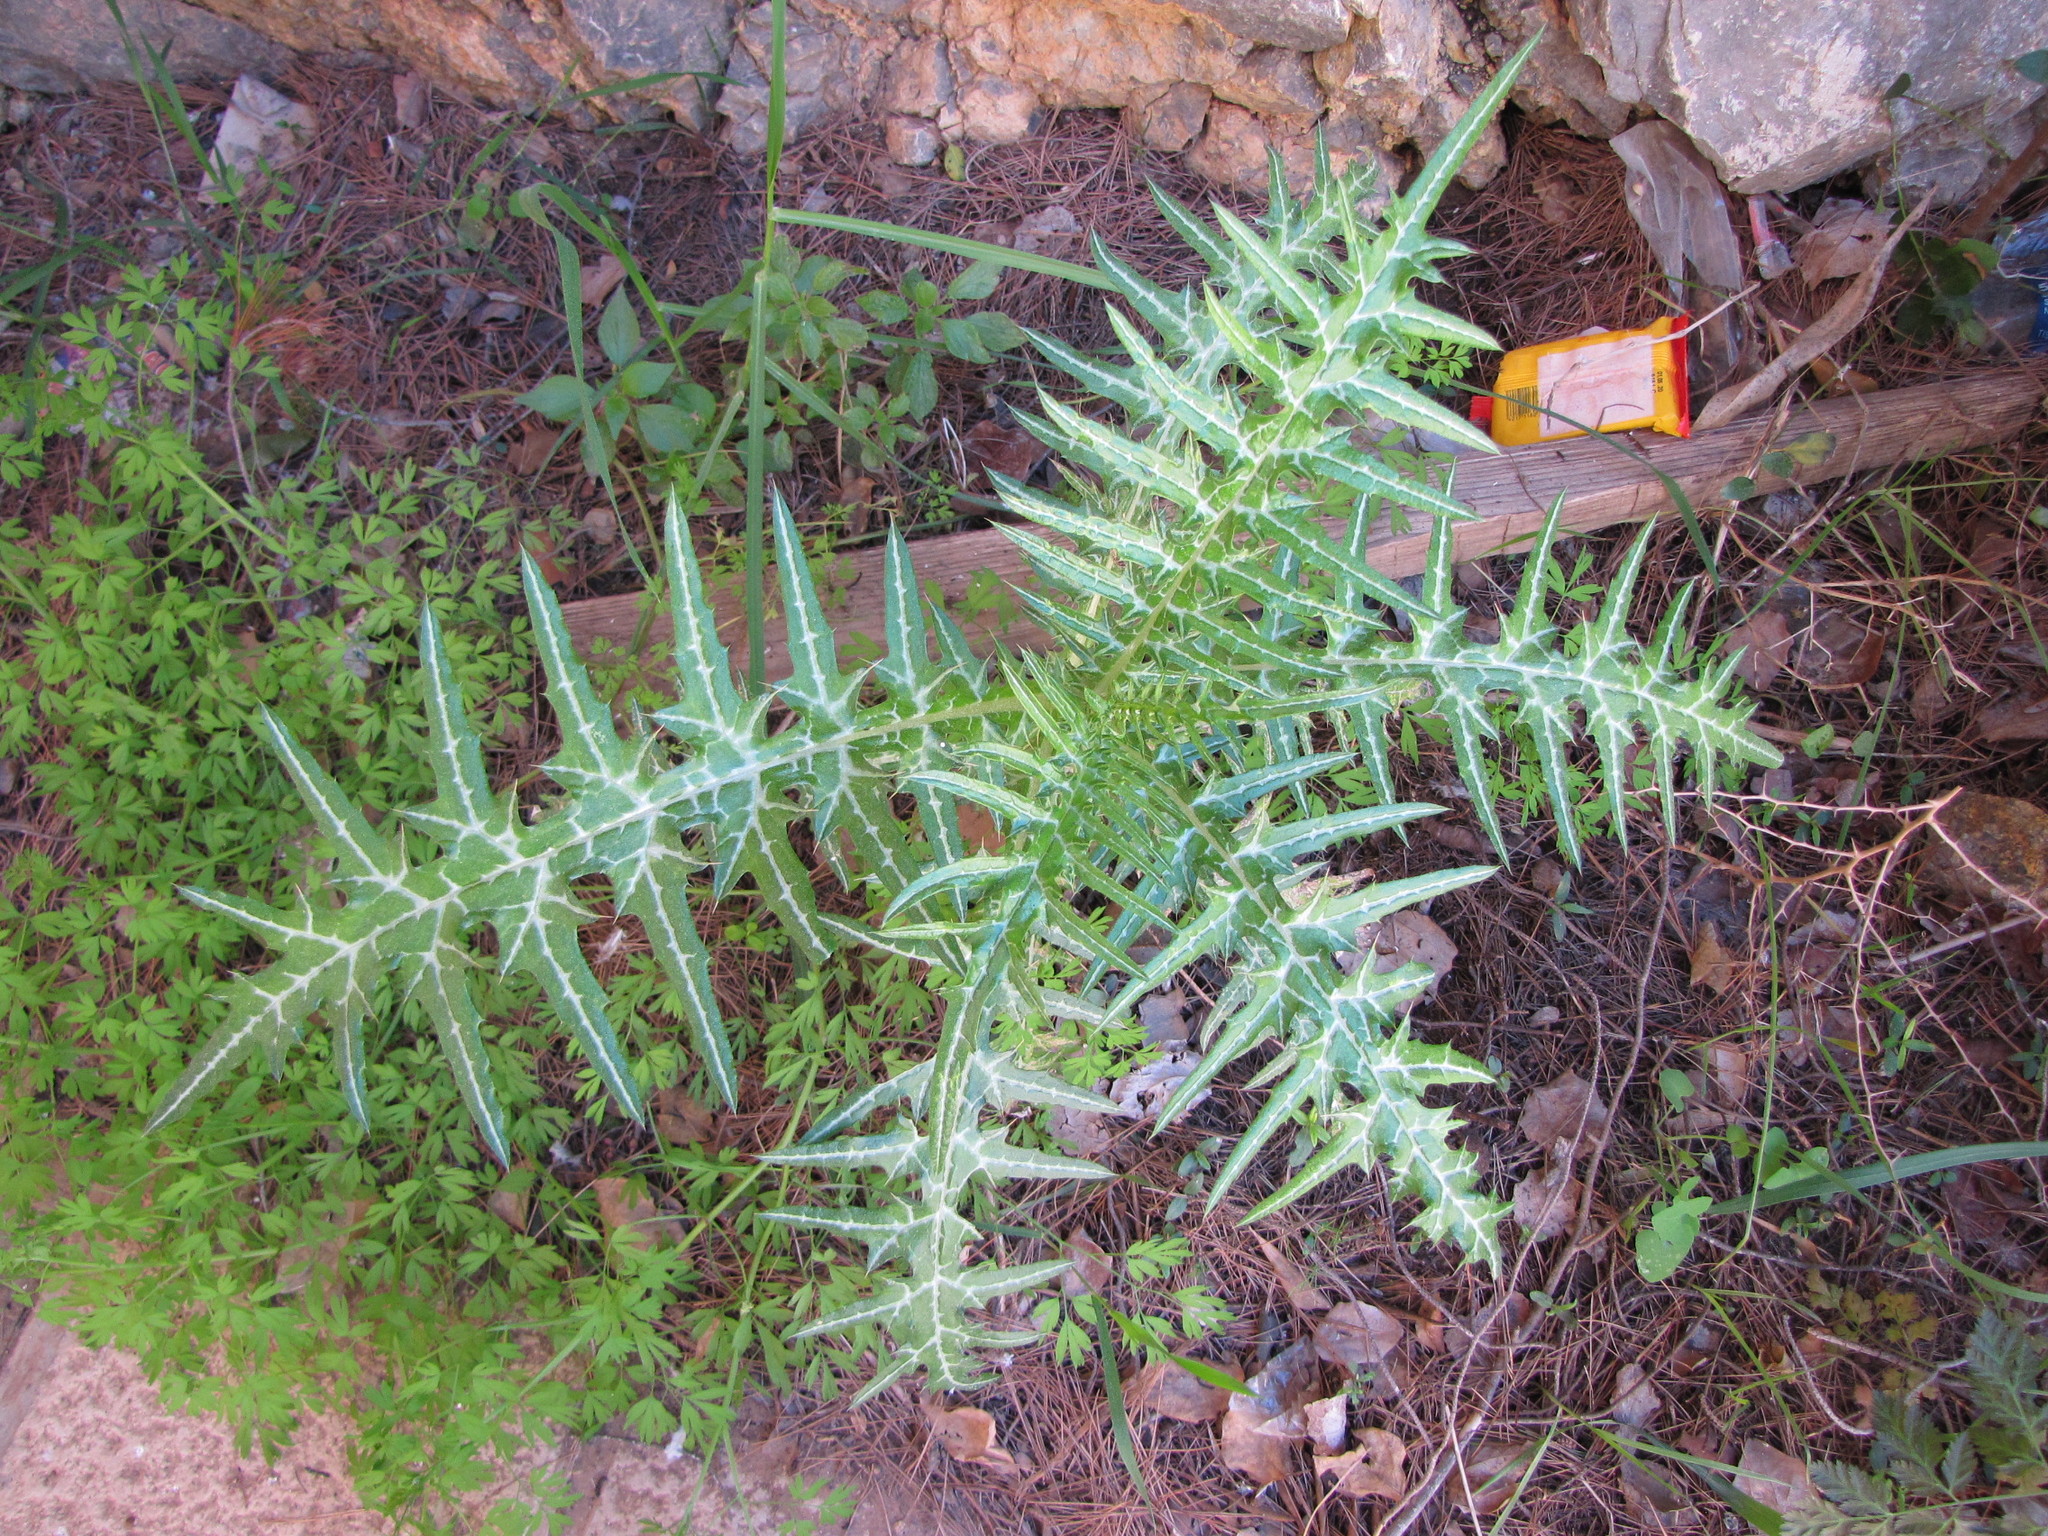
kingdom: Plantae
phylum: Tracheophyta
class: Magnoliopsida
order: Asterales
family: Asteraceae
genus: Galactites
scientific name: Galactites tomentosa
